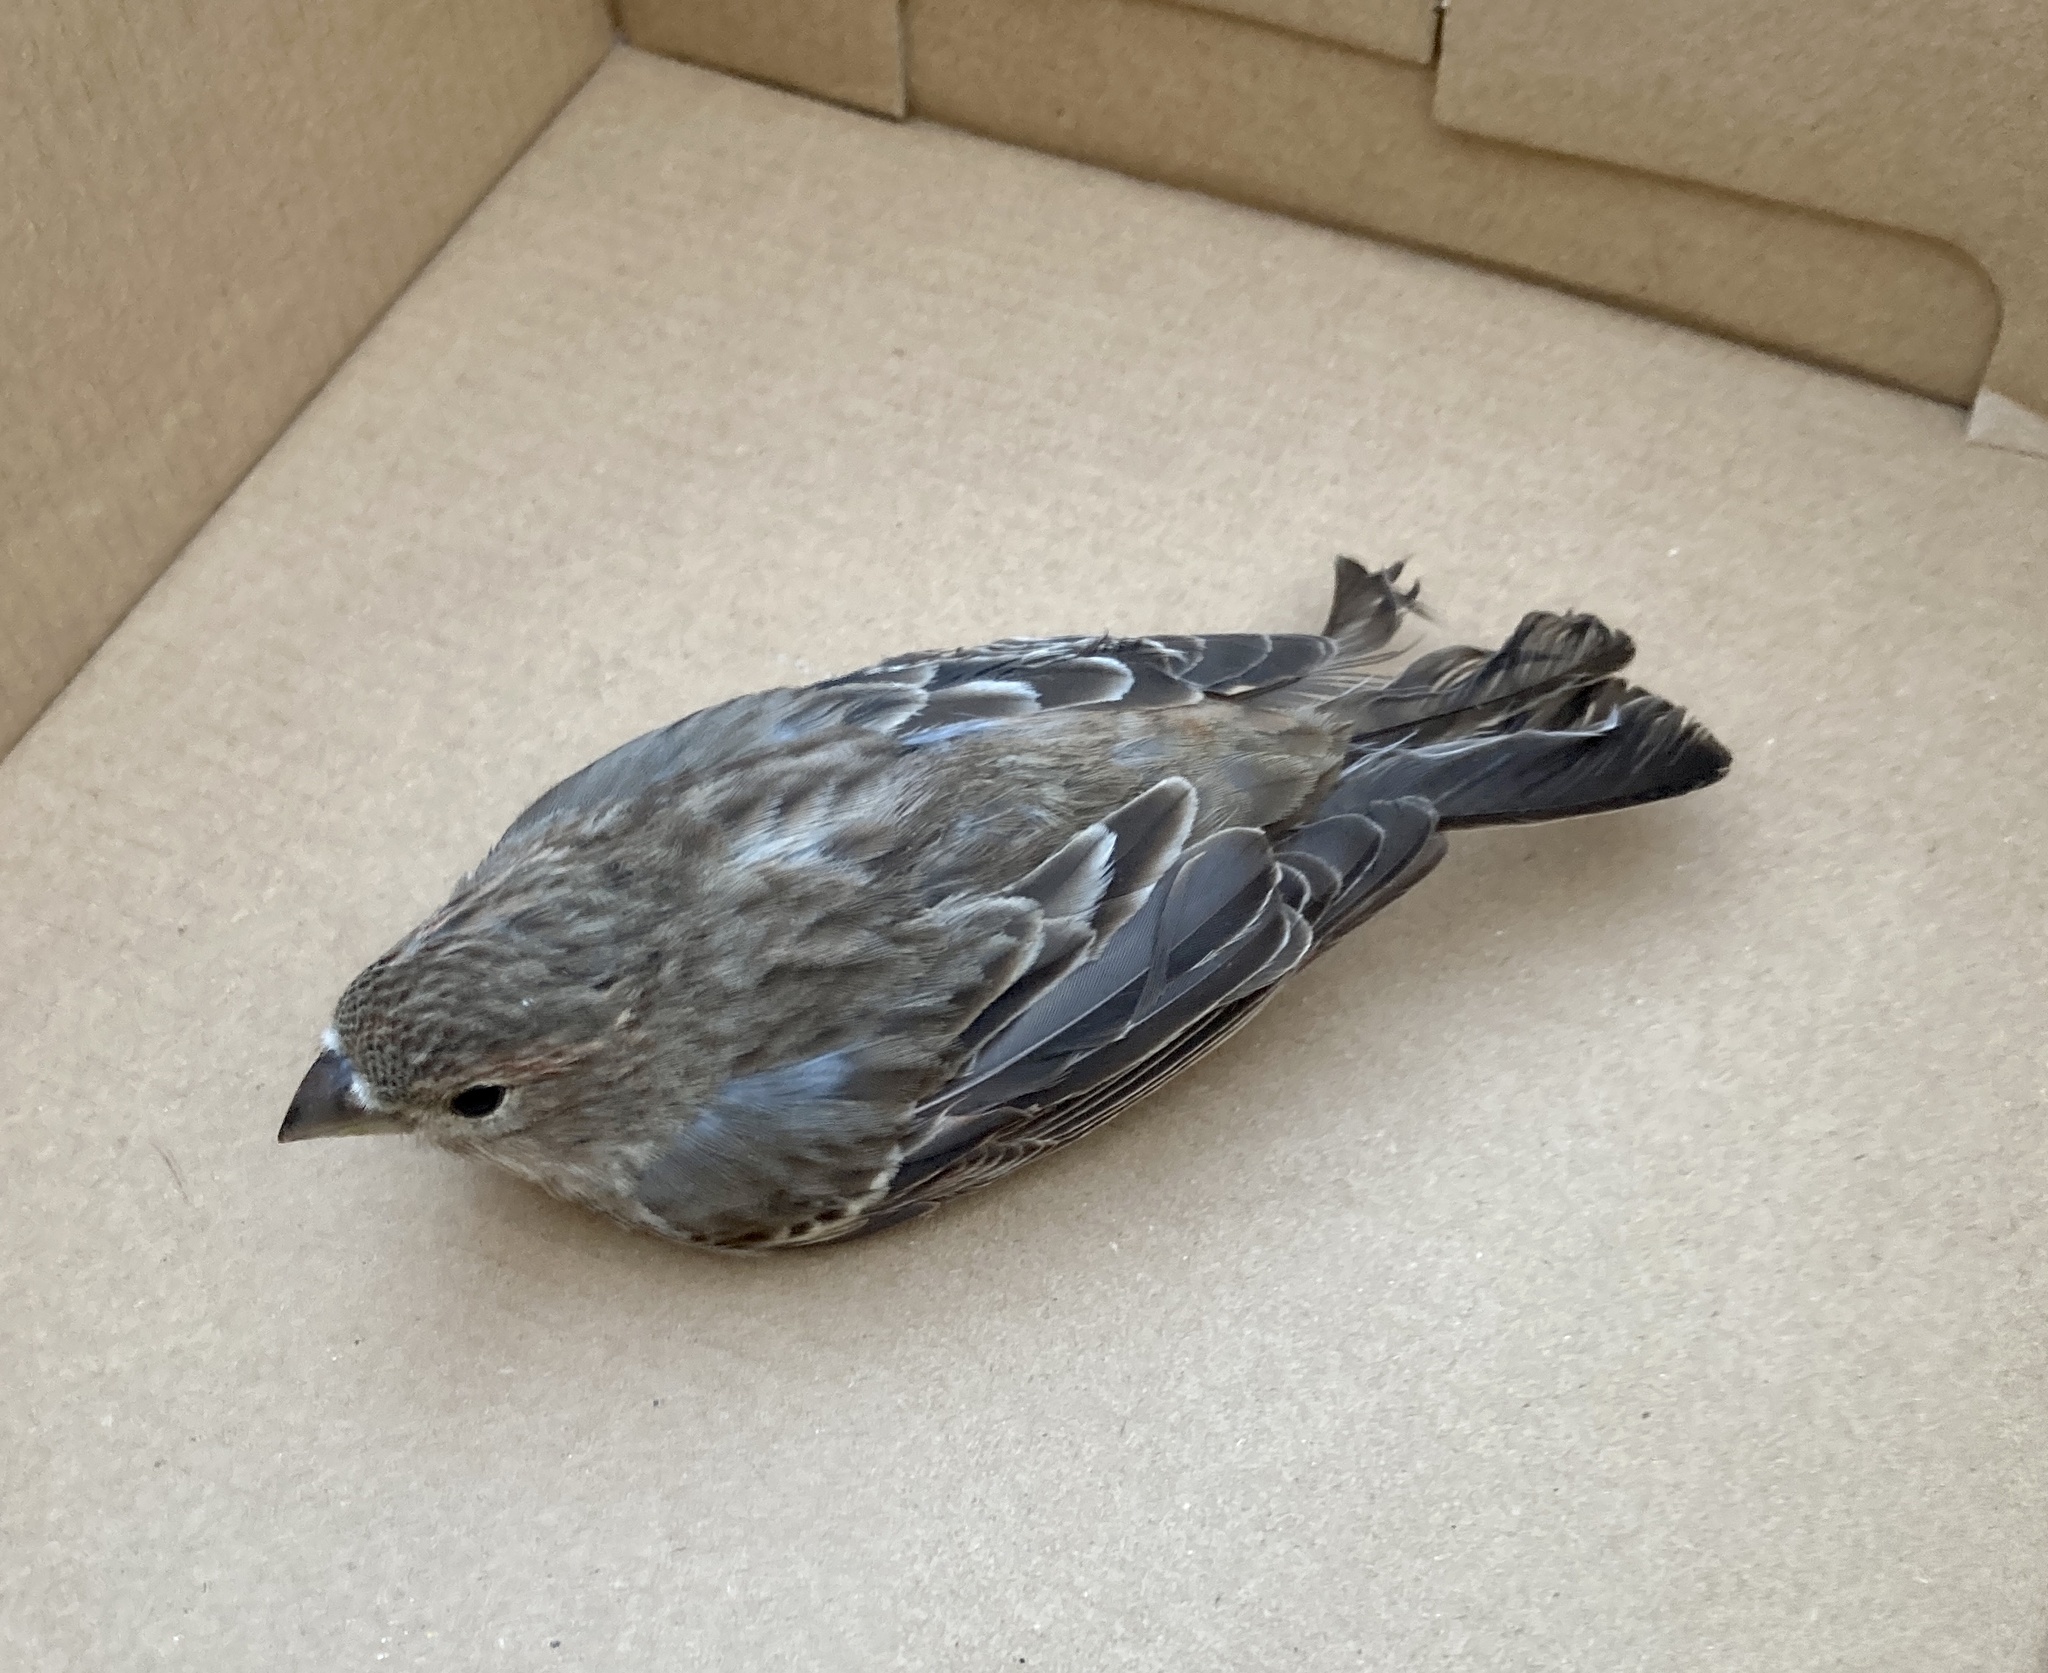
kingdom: Animalia
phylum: Chordata
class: Aves
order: Passeriformes
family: Fringillidae
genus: Haemorhous
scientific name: Haemorhous mexicanus
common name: House finch
